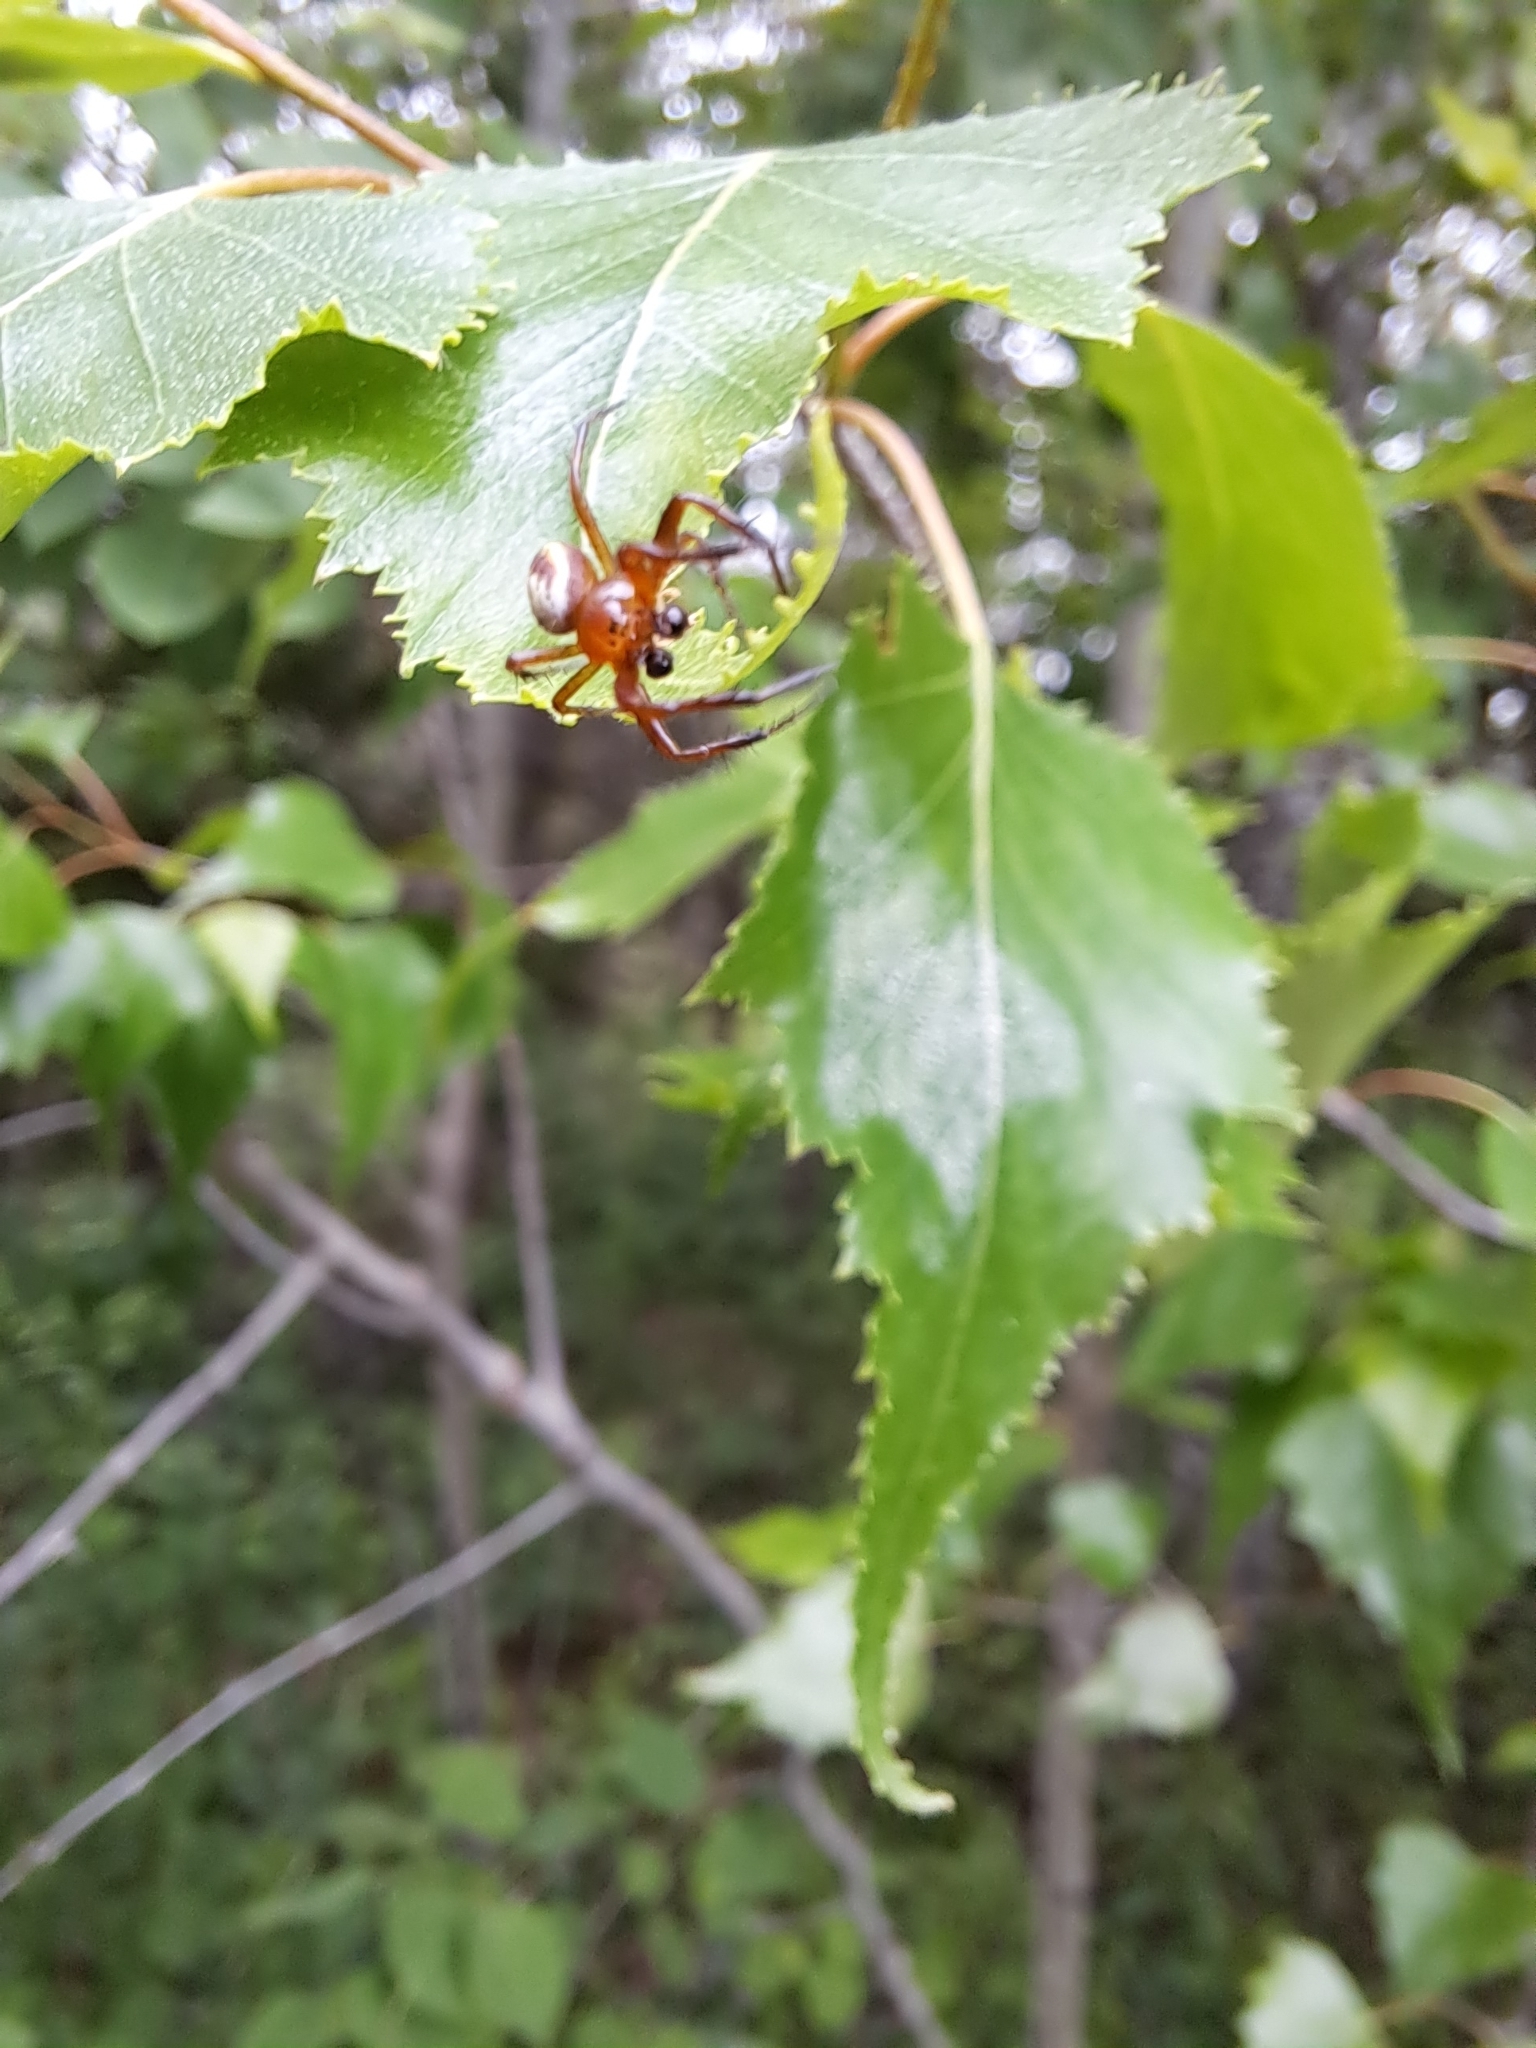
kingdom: Animalia
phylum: Arthropoda
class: Arachnida
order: Araneae
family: Araneidae
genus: Araniella
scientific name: Araniella displicata
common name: Sixspotted orb weaver
